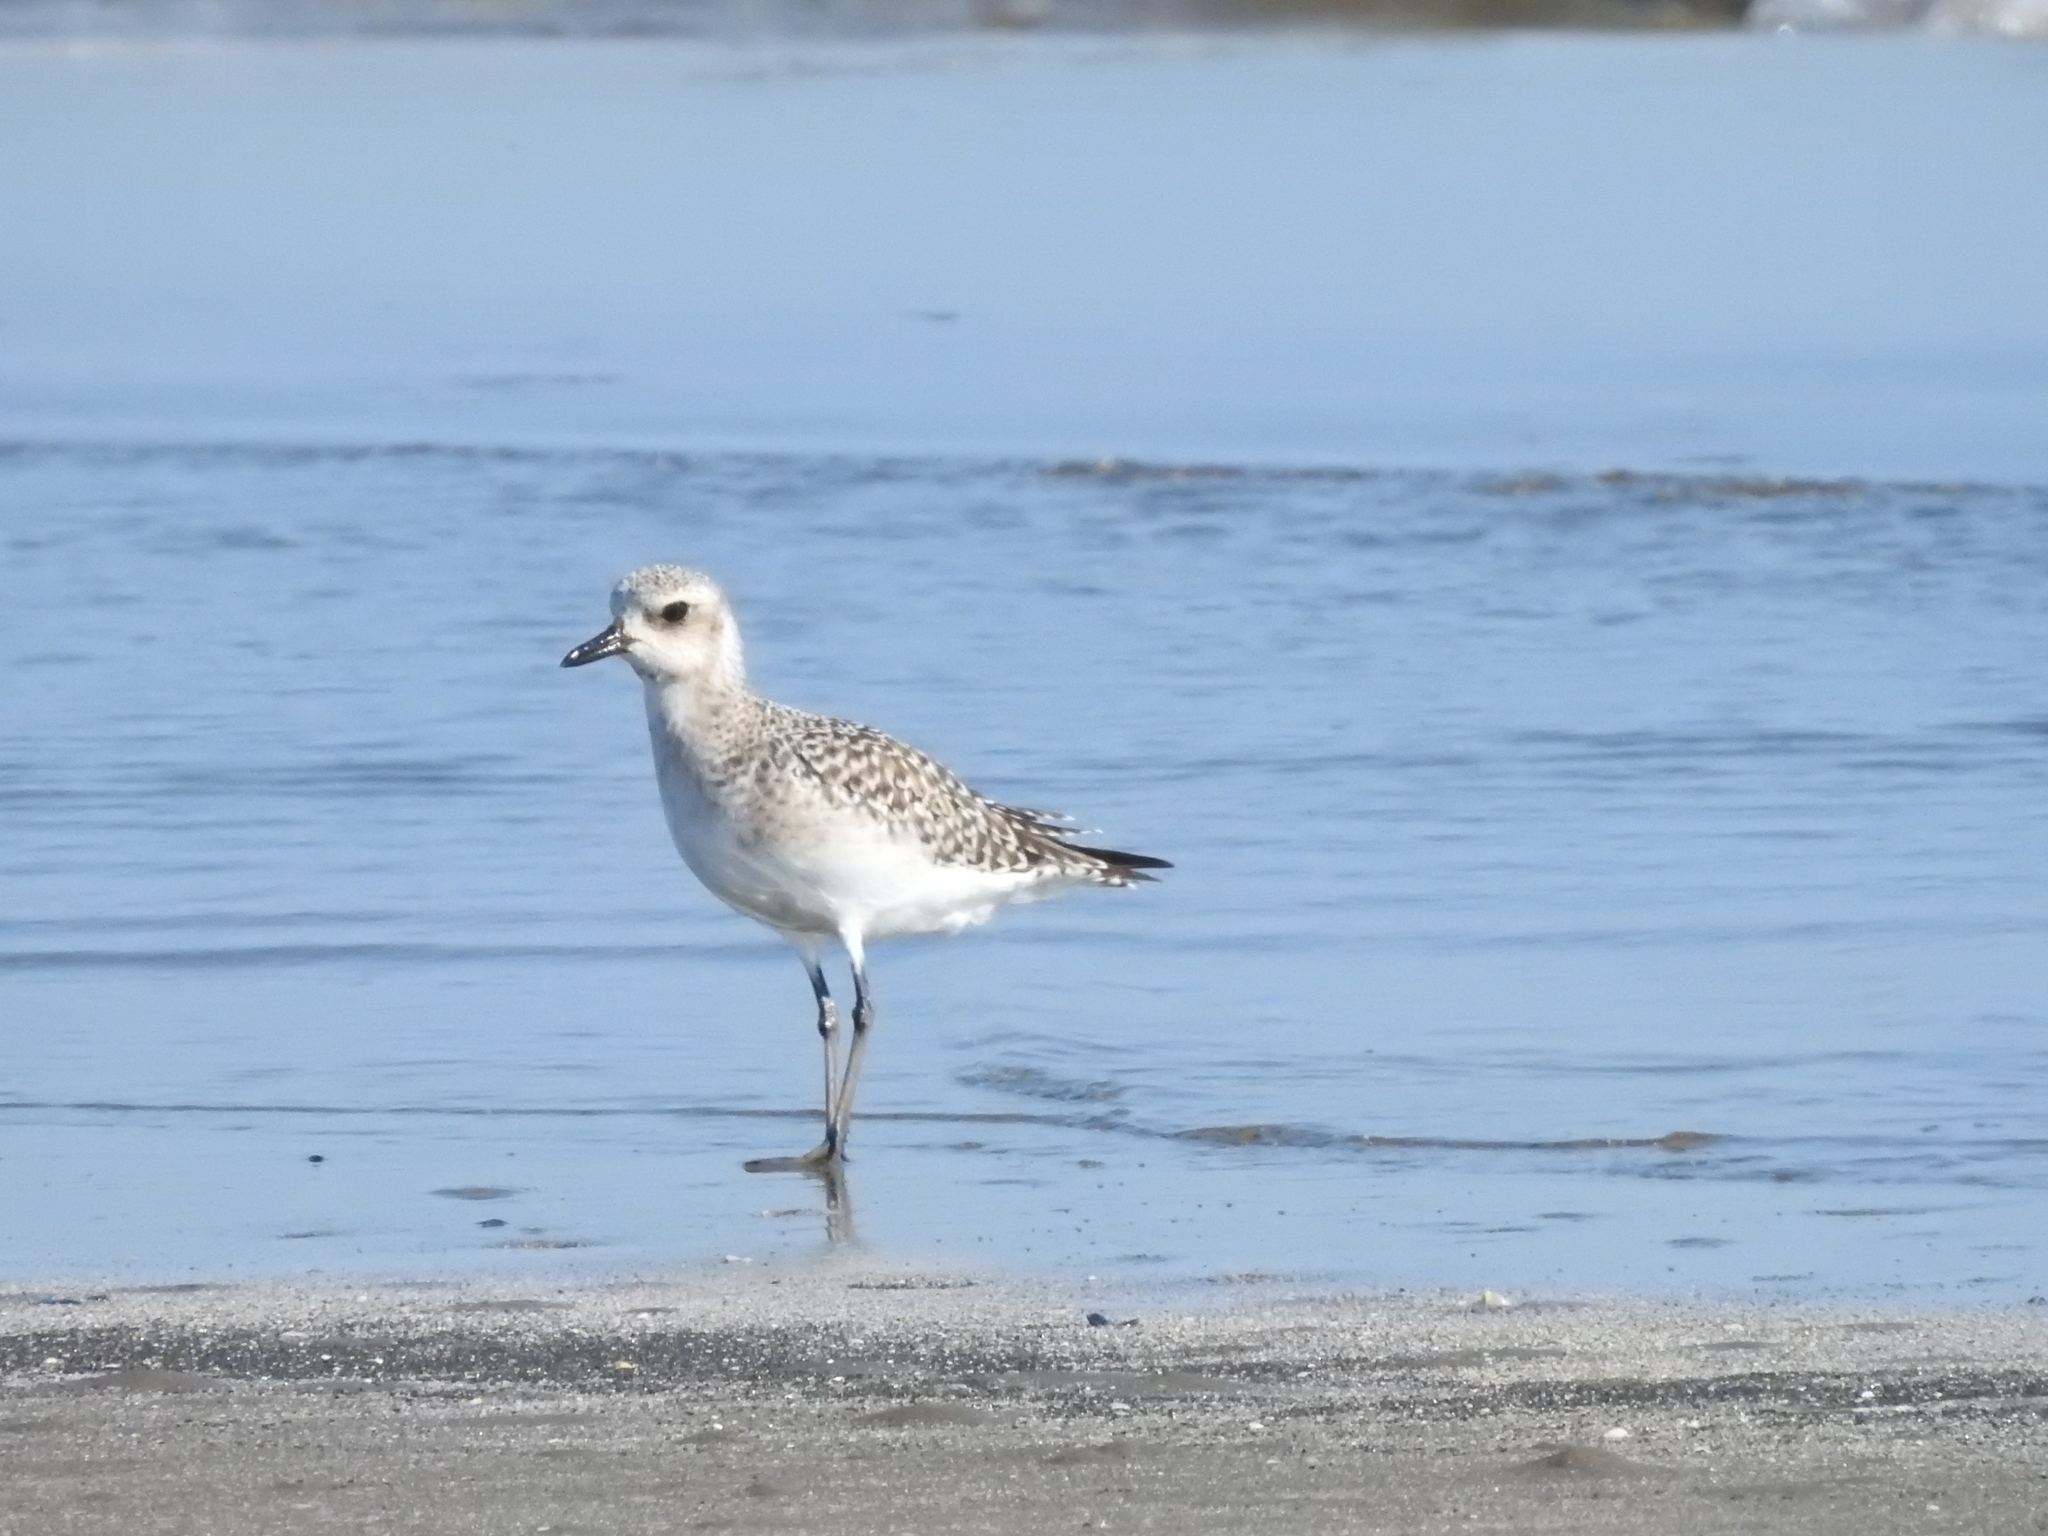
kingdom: Animalia
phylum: Chordata
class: Aves
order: Charadriiformes
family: Charadriidae
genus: Pluvialis
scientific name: Pluvialis squatarola
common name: Grey plover
